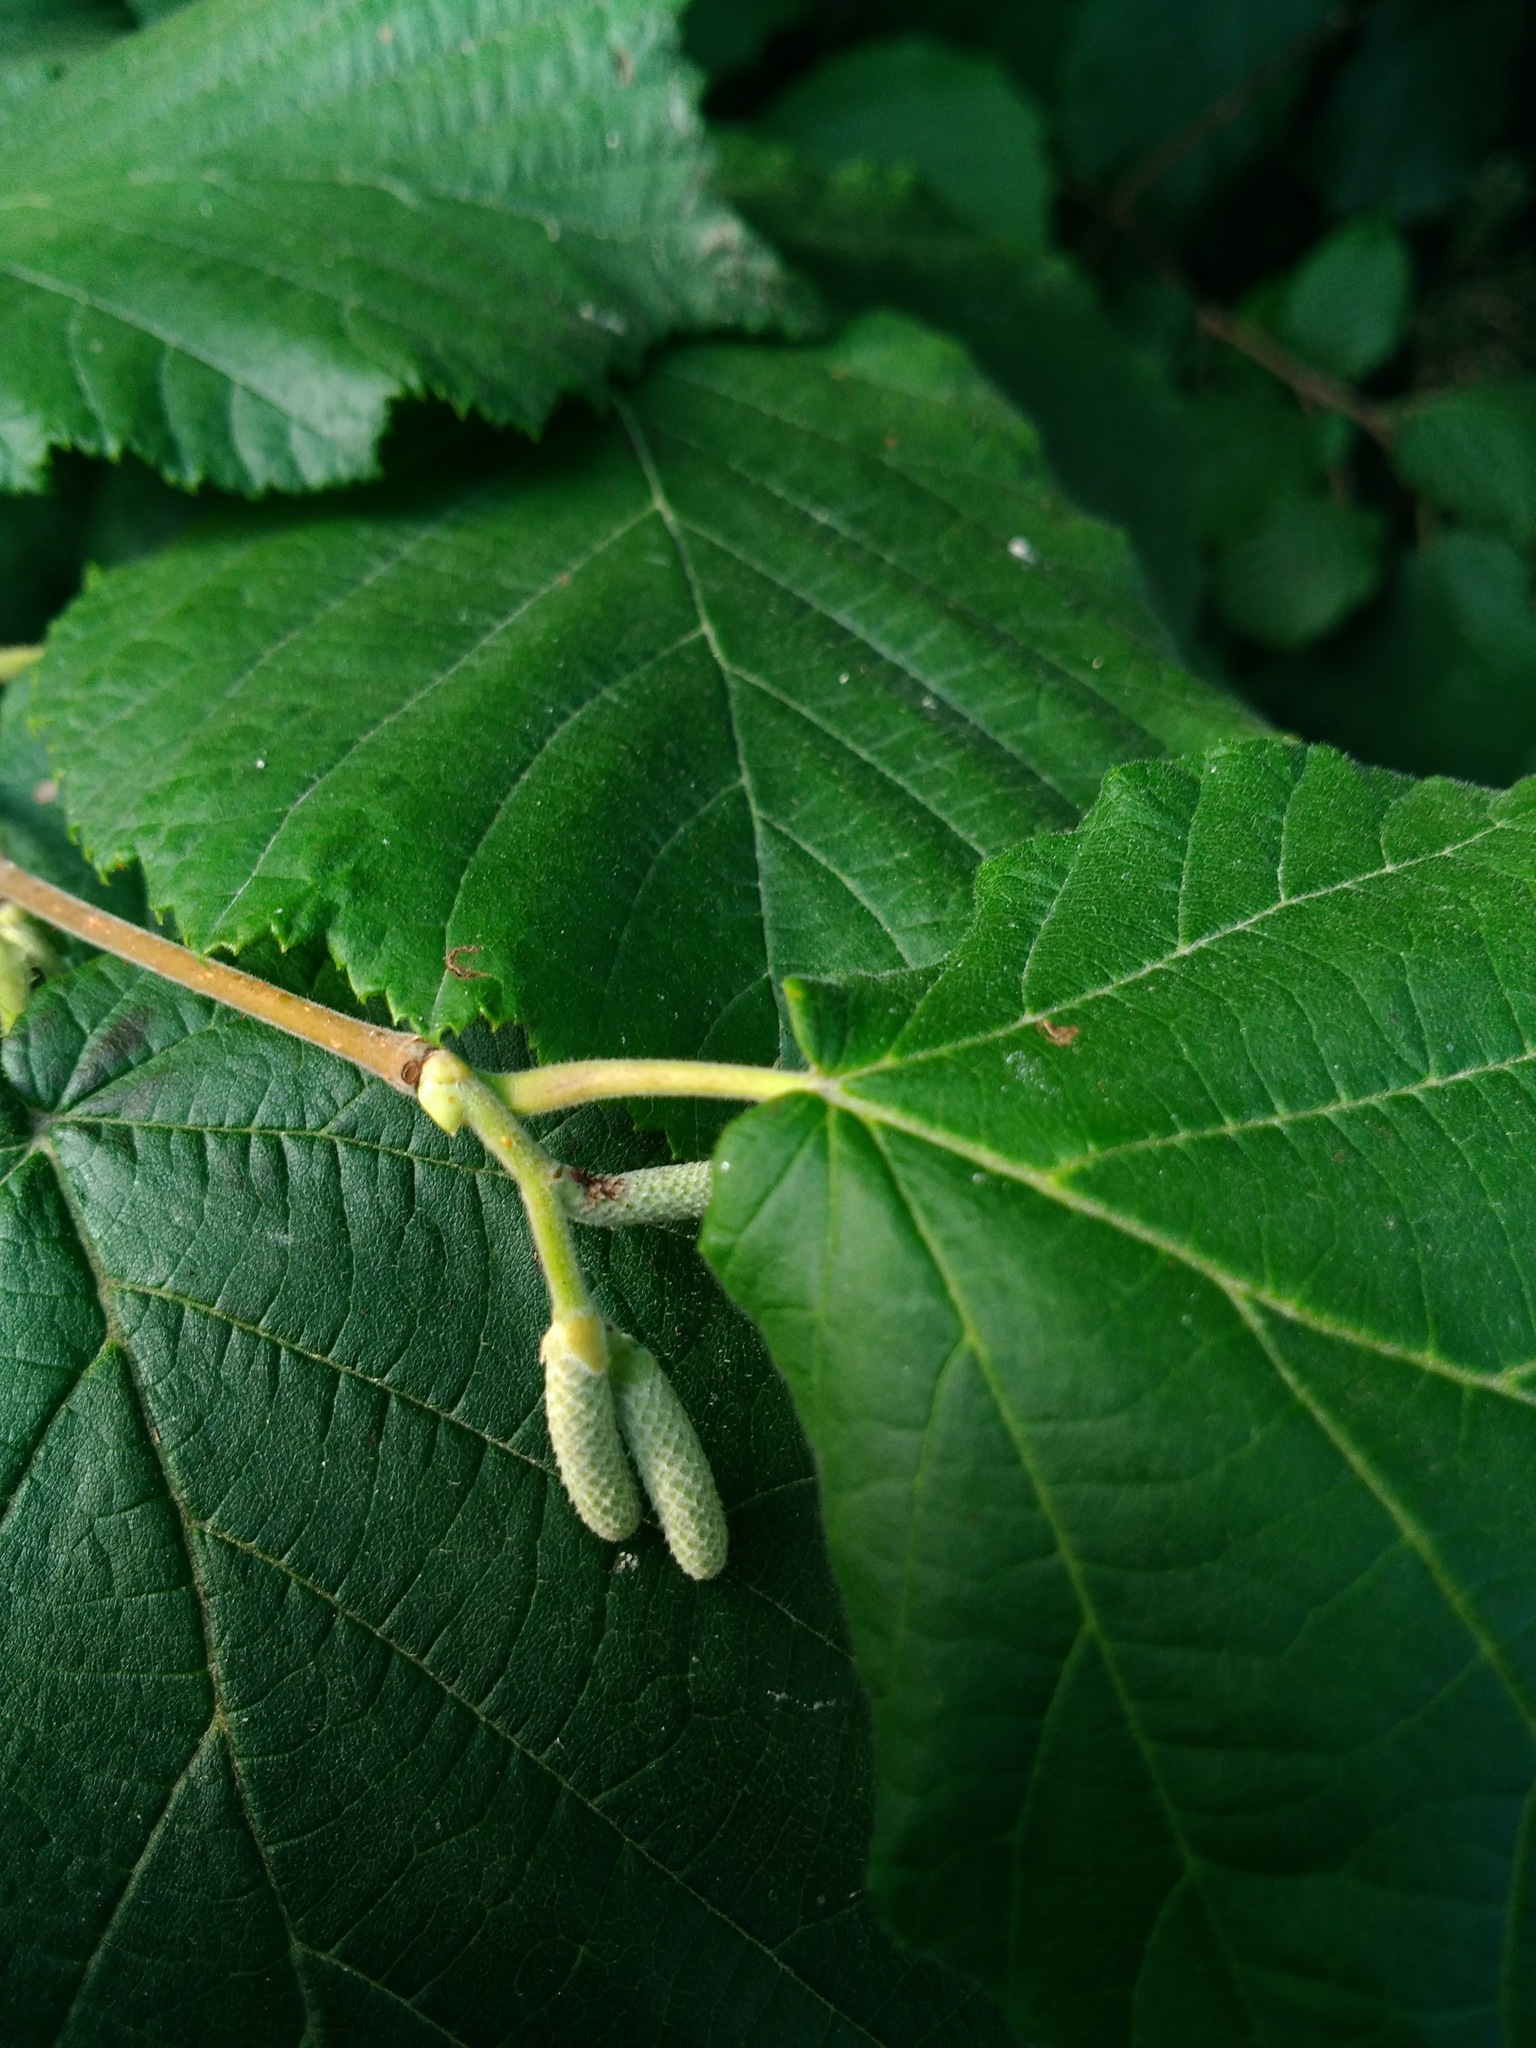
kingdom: Plantae
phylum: Tracheophyta
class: Magnoliopsida
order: Fagales
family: Betulaceae
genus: Alnus
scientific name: Alnus alnobetula
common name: Green alder
